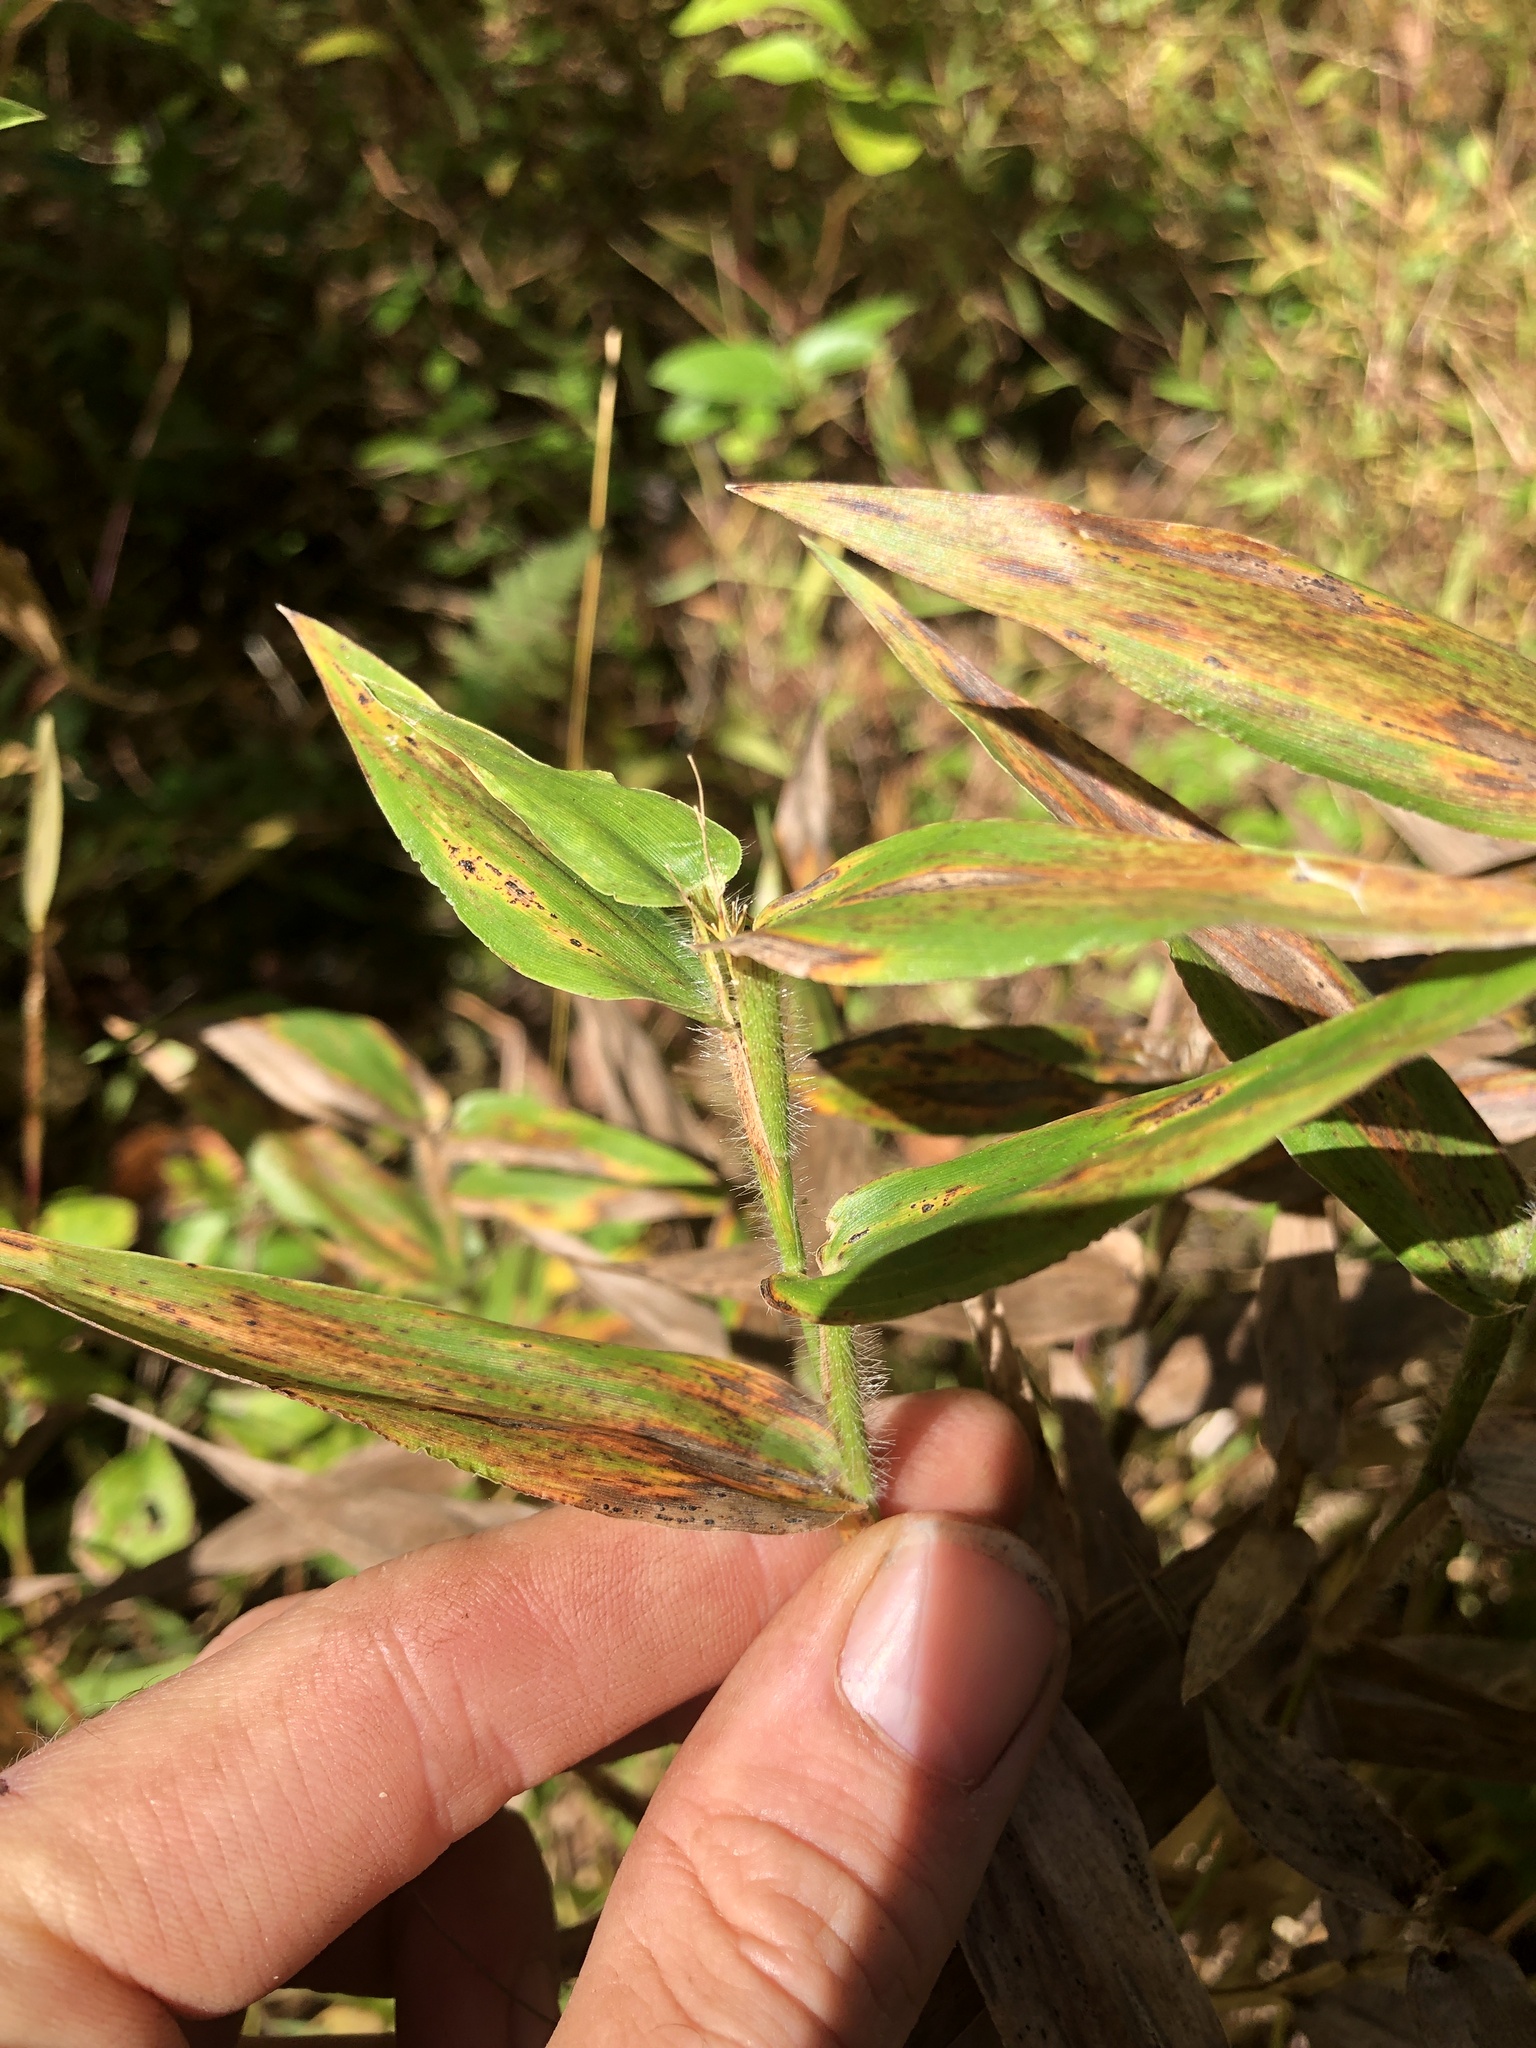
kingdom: Plantae
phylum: Tracheophyta
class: Liliopsida
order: Poales
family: Poaceae
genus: Dichanthelium
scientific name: Dichanthelium clandestinum
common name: Deer-tongue grass
